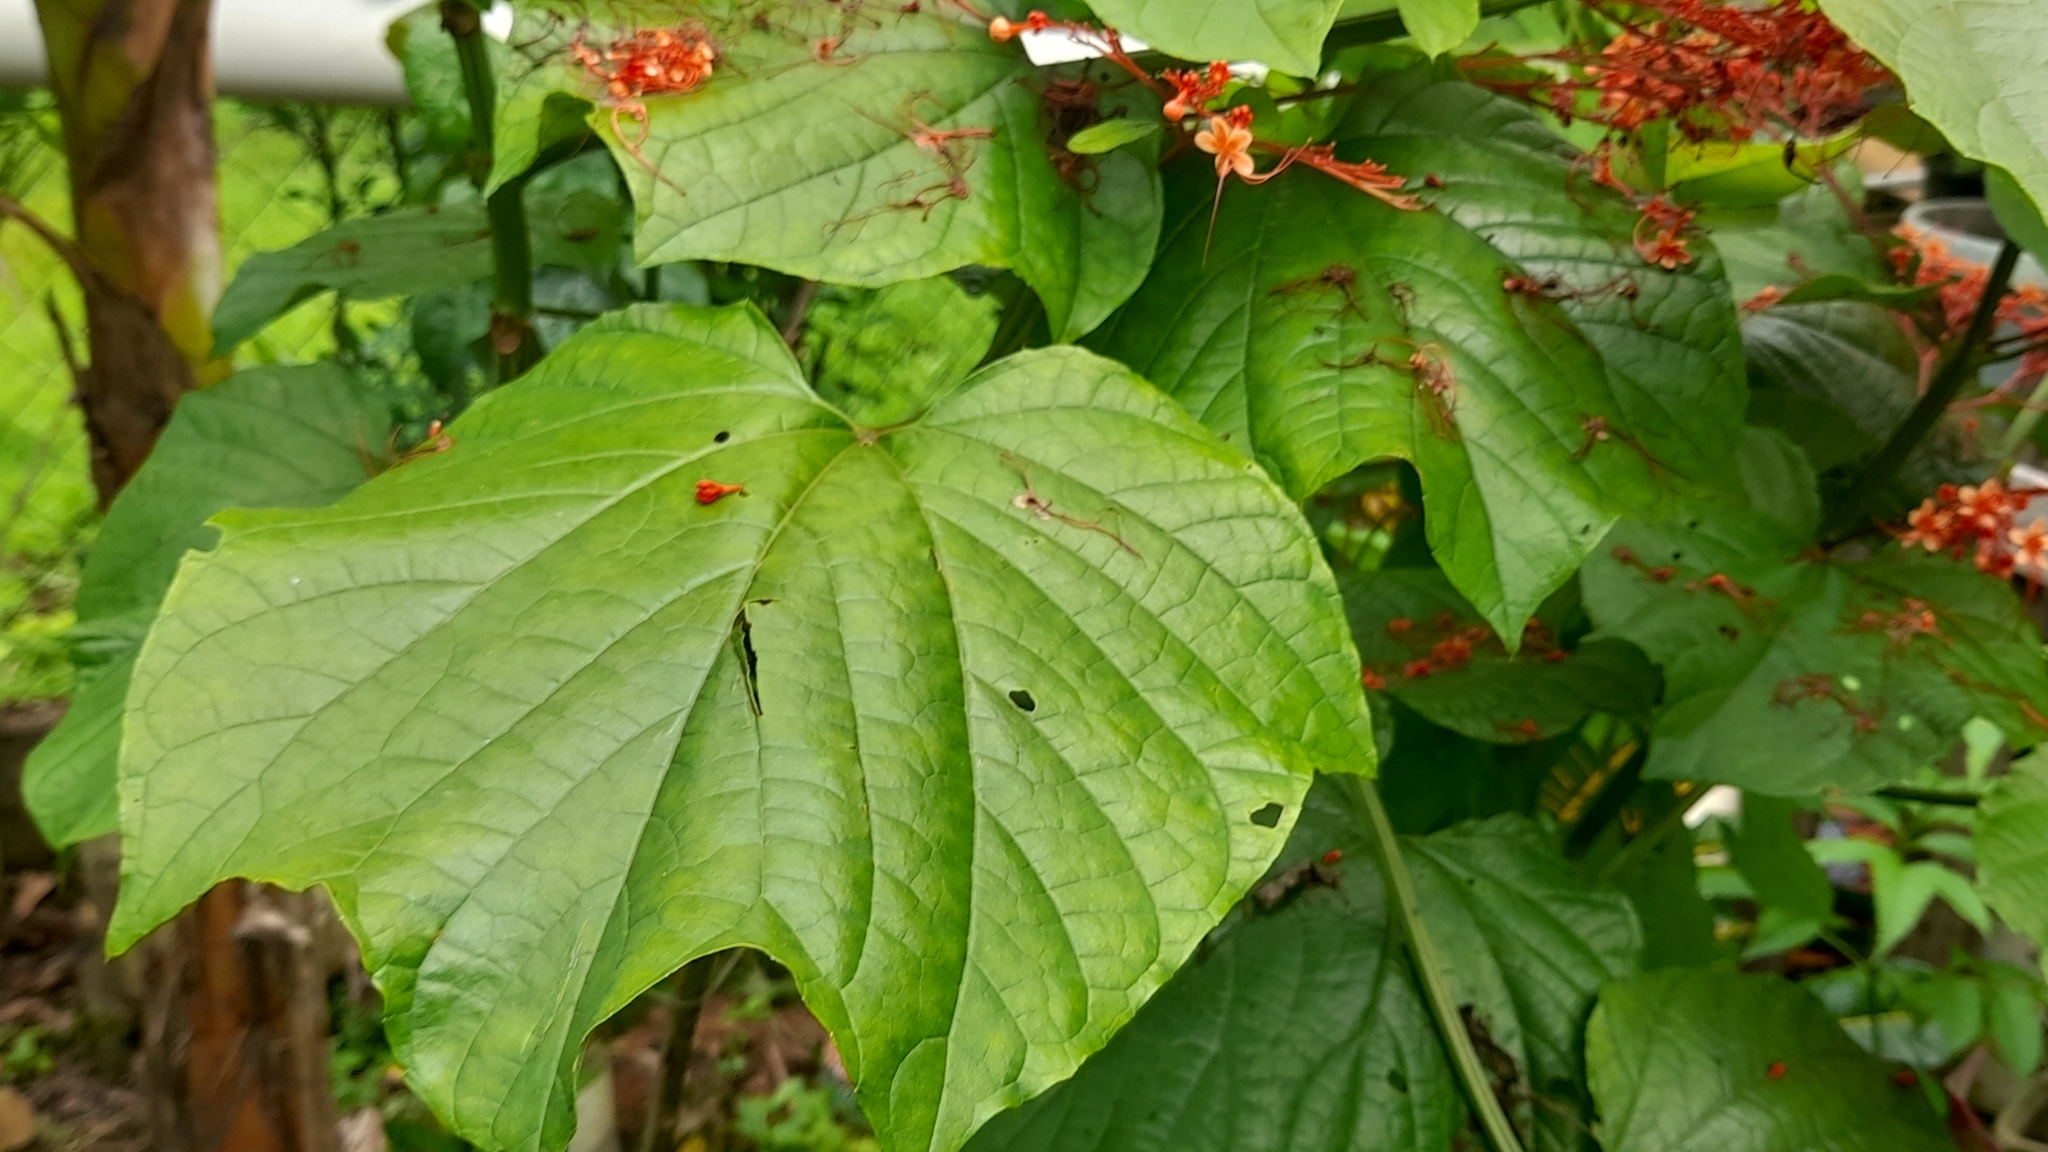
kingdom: Plantae
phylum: Tracheophyta
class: Magnoliopsida
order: Lamiales
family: Lamiaceae
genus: Clerodendrum
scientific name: Clerodendrum paniculatum
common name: Pagoda-flower
